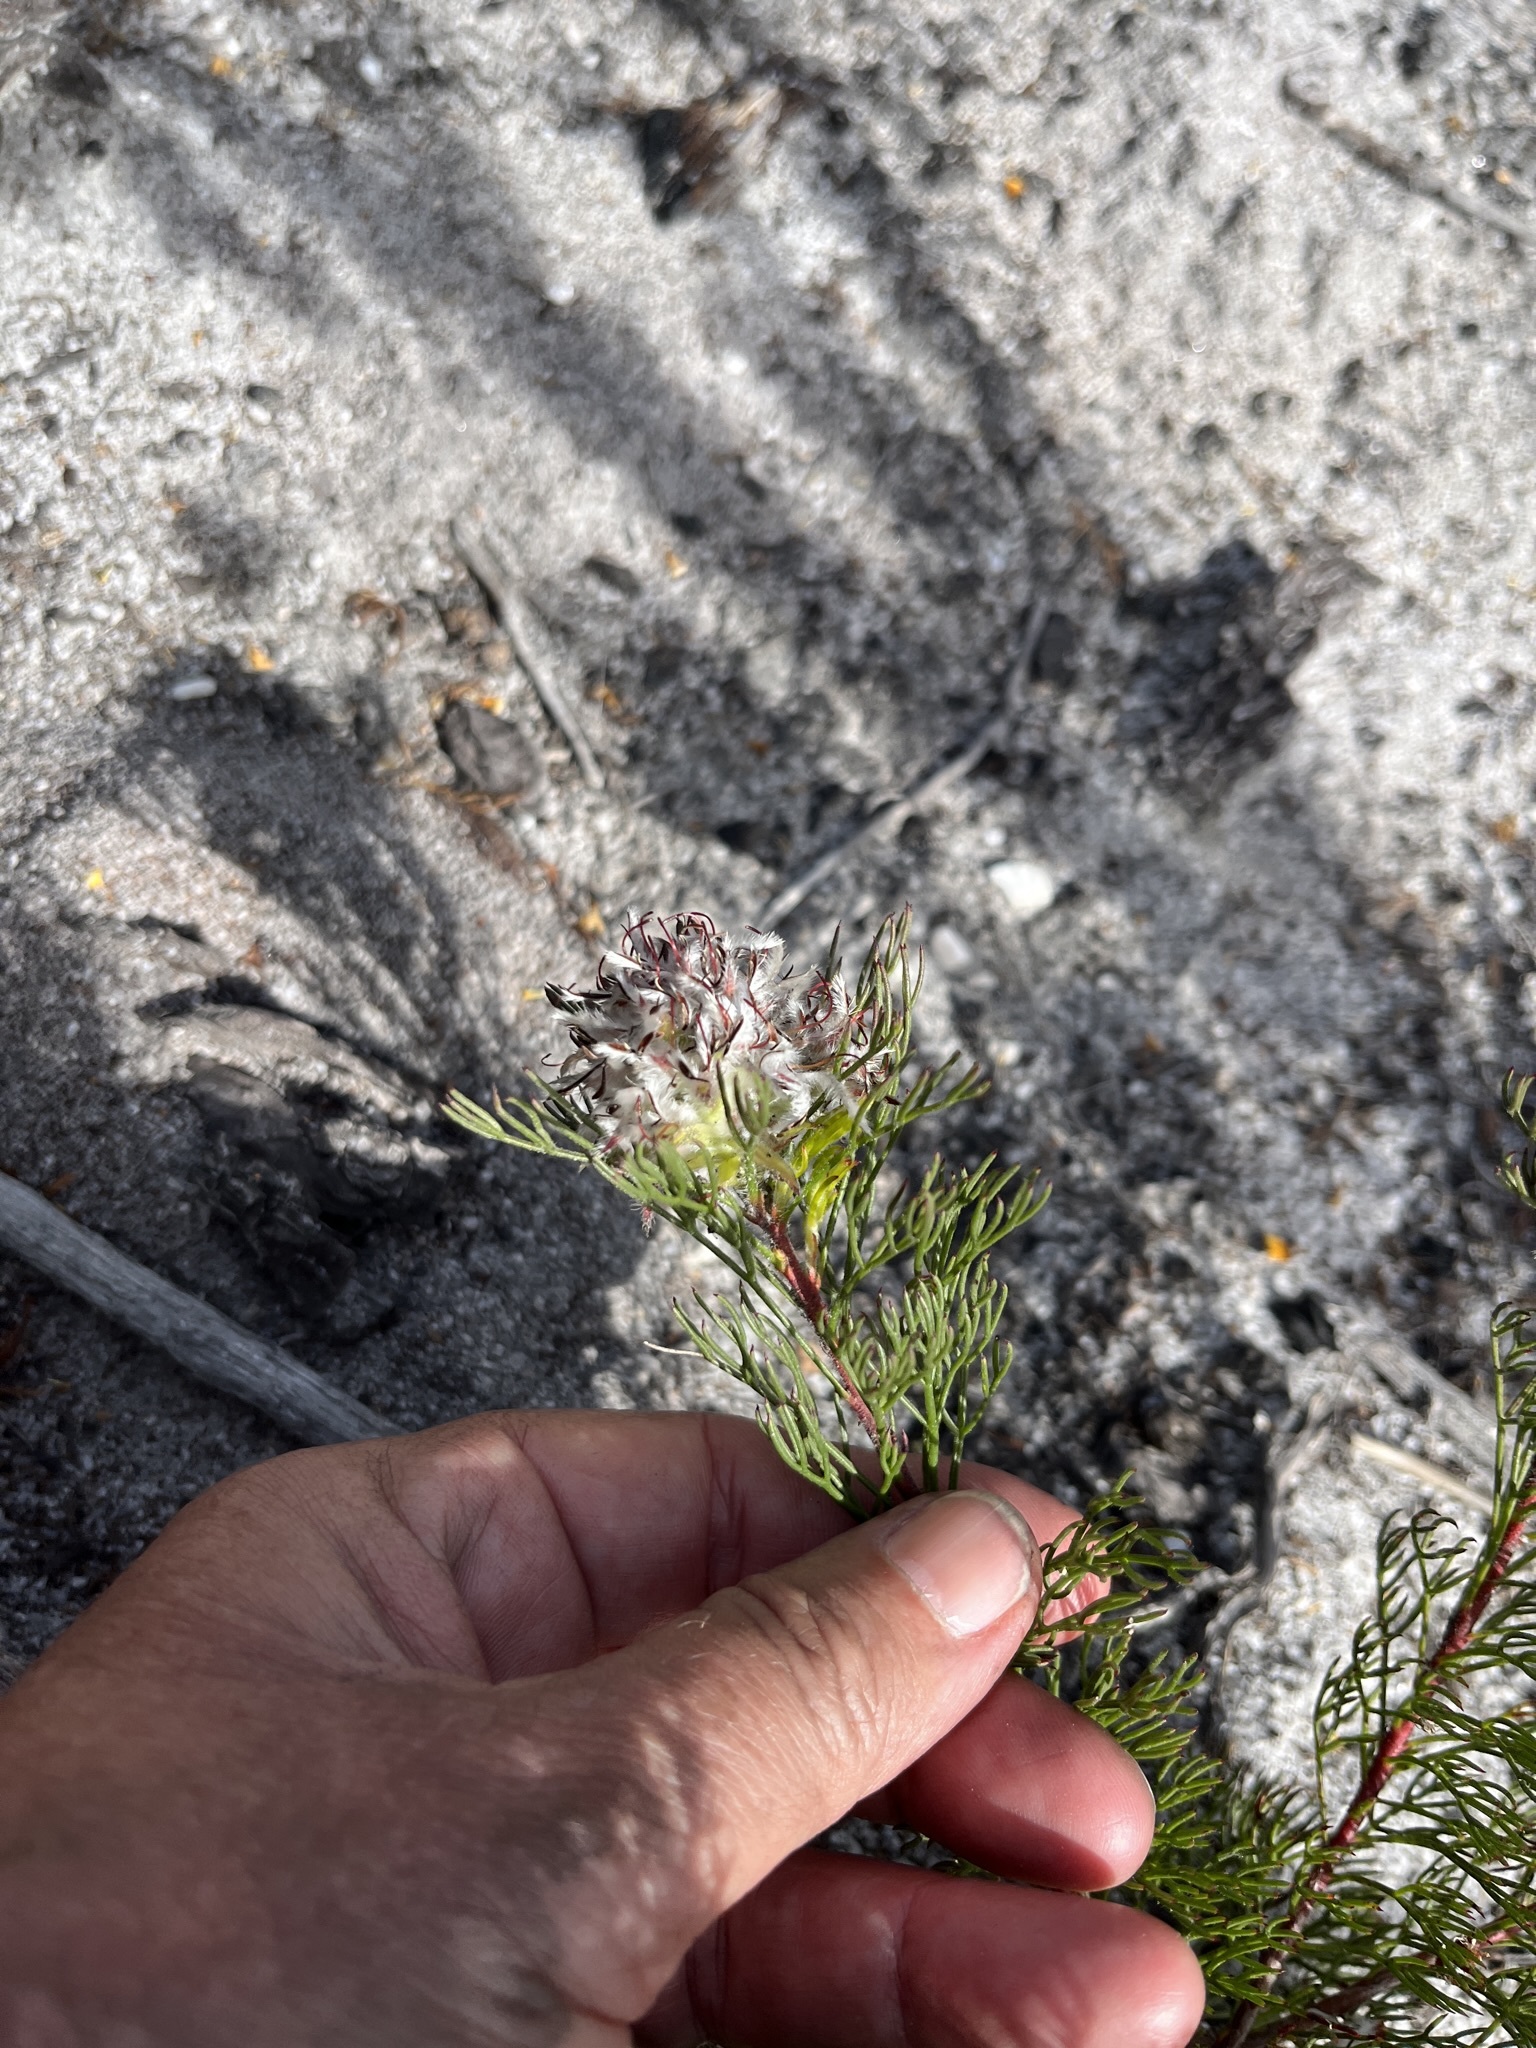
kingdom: Plantae
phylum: Tracheophyta
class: Magnoliopsida
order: Proteales
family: Proteaceae
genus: Serruria
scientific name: Serruria rostellaris
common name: Remote spiderhead
